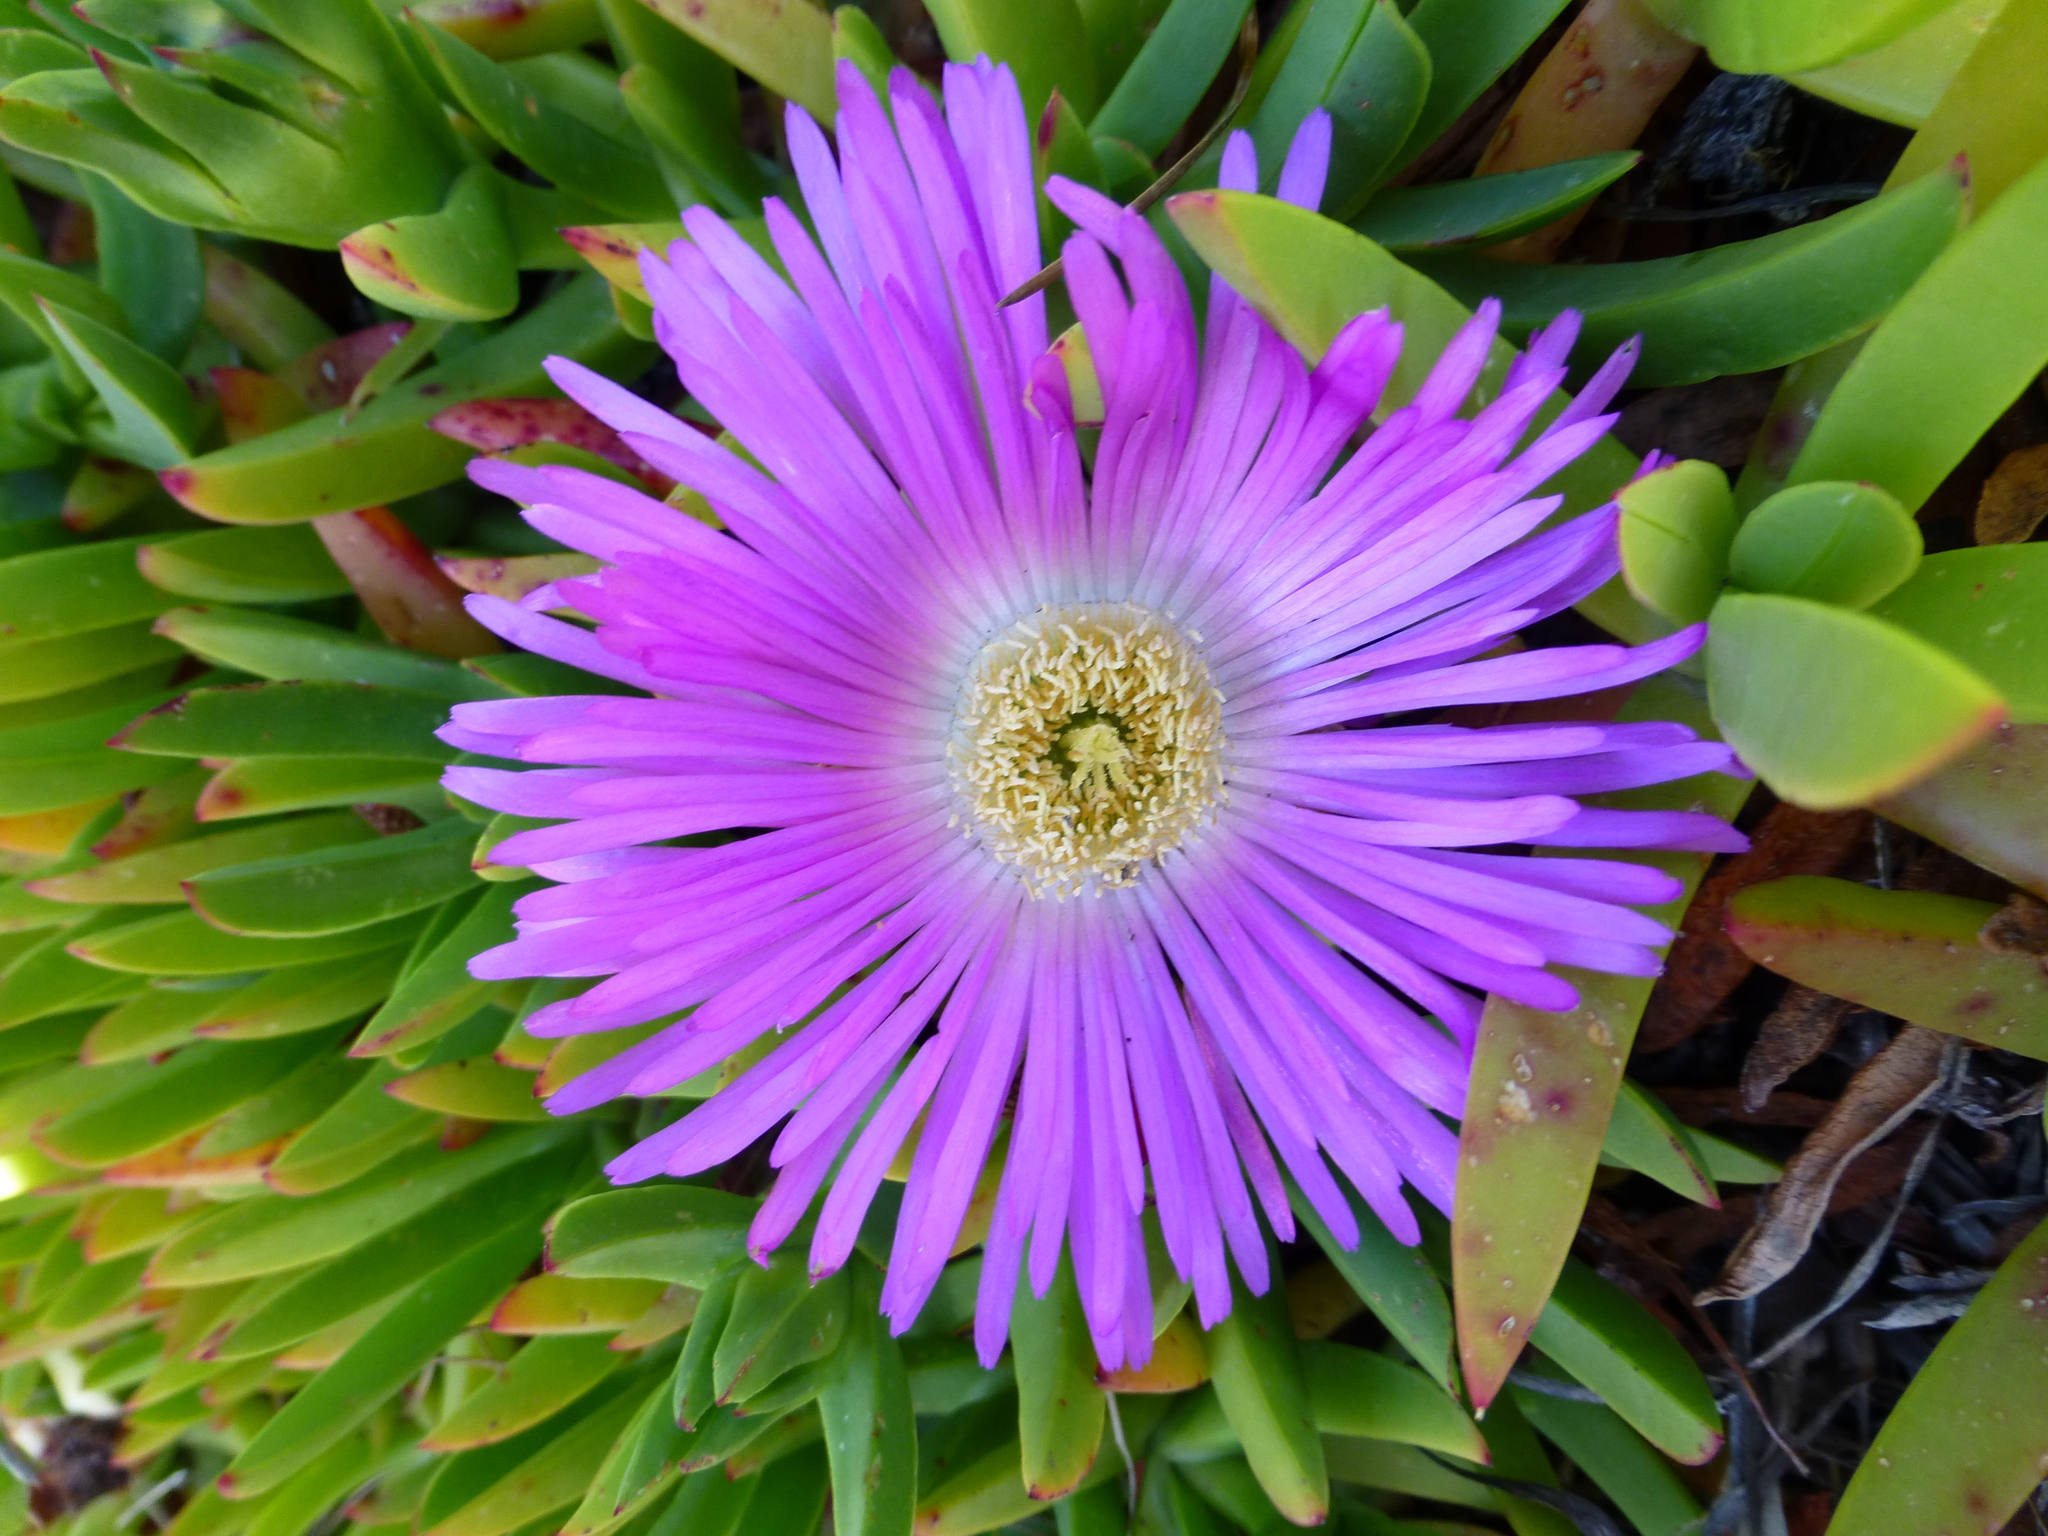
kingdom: Plantae
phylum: Tracheophyta
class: Magnoliopsida
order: Caryophyllales
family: Aizoaceae
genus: Carpobrotus
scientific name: Carpobrotus chilensis
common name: Sea fig
